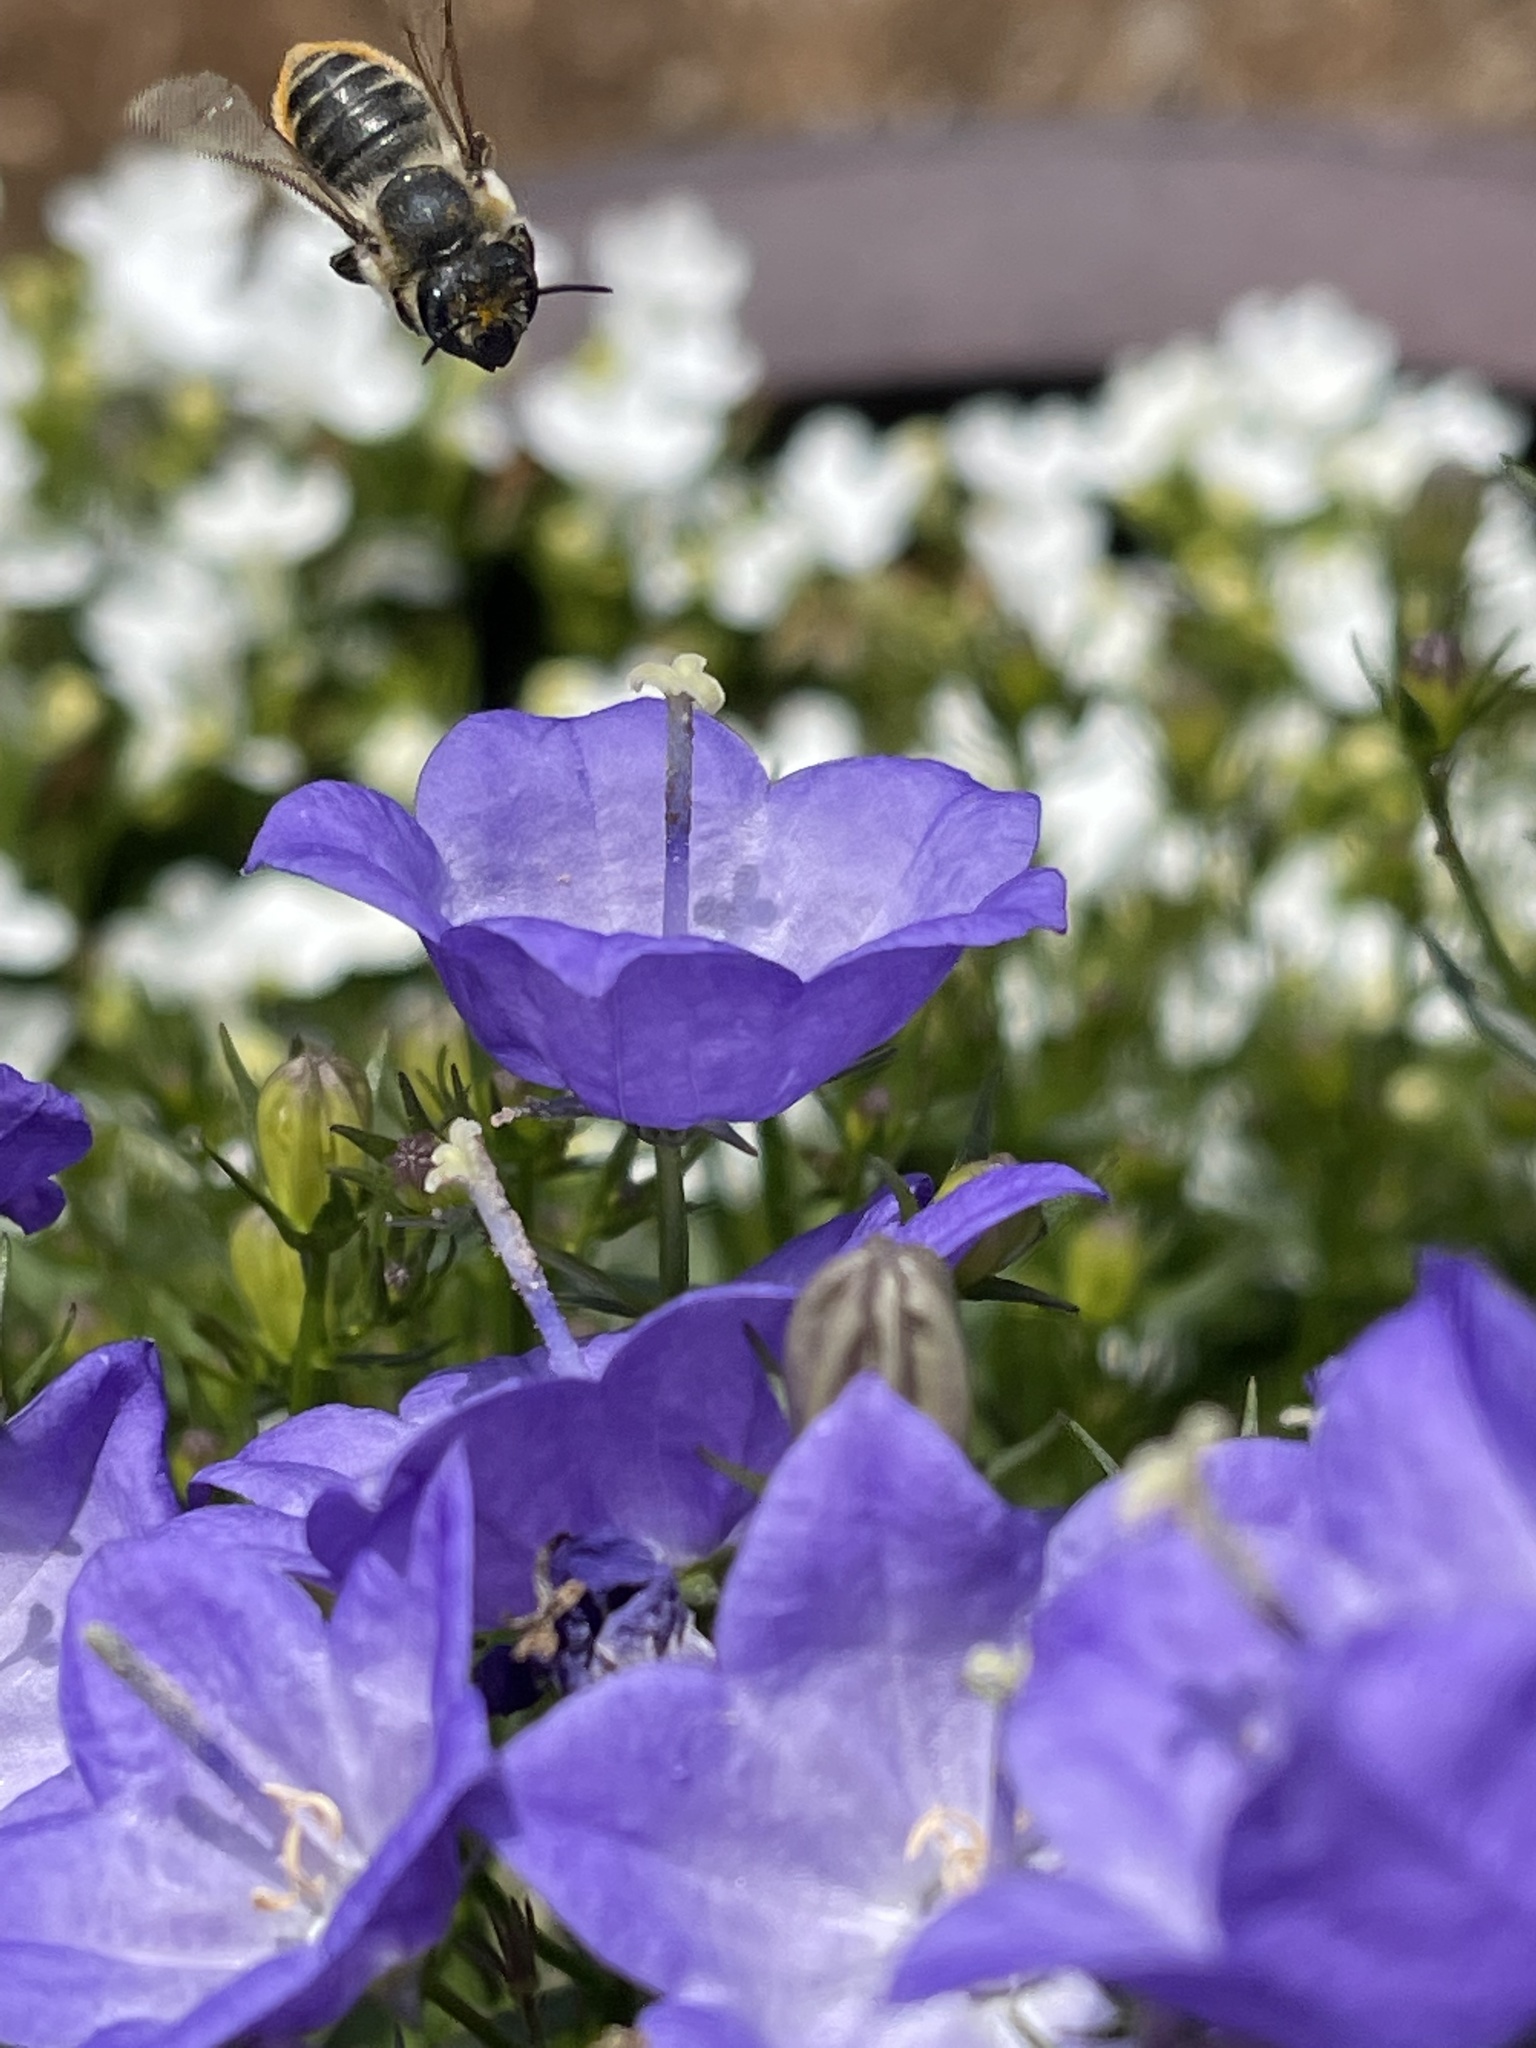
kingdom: Animalia
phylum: Arthropoda
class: Insecta
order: Hymenoptera
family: Megachilidae
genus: Megachile
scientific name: Megachile perihirta
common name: Western leafcutter
